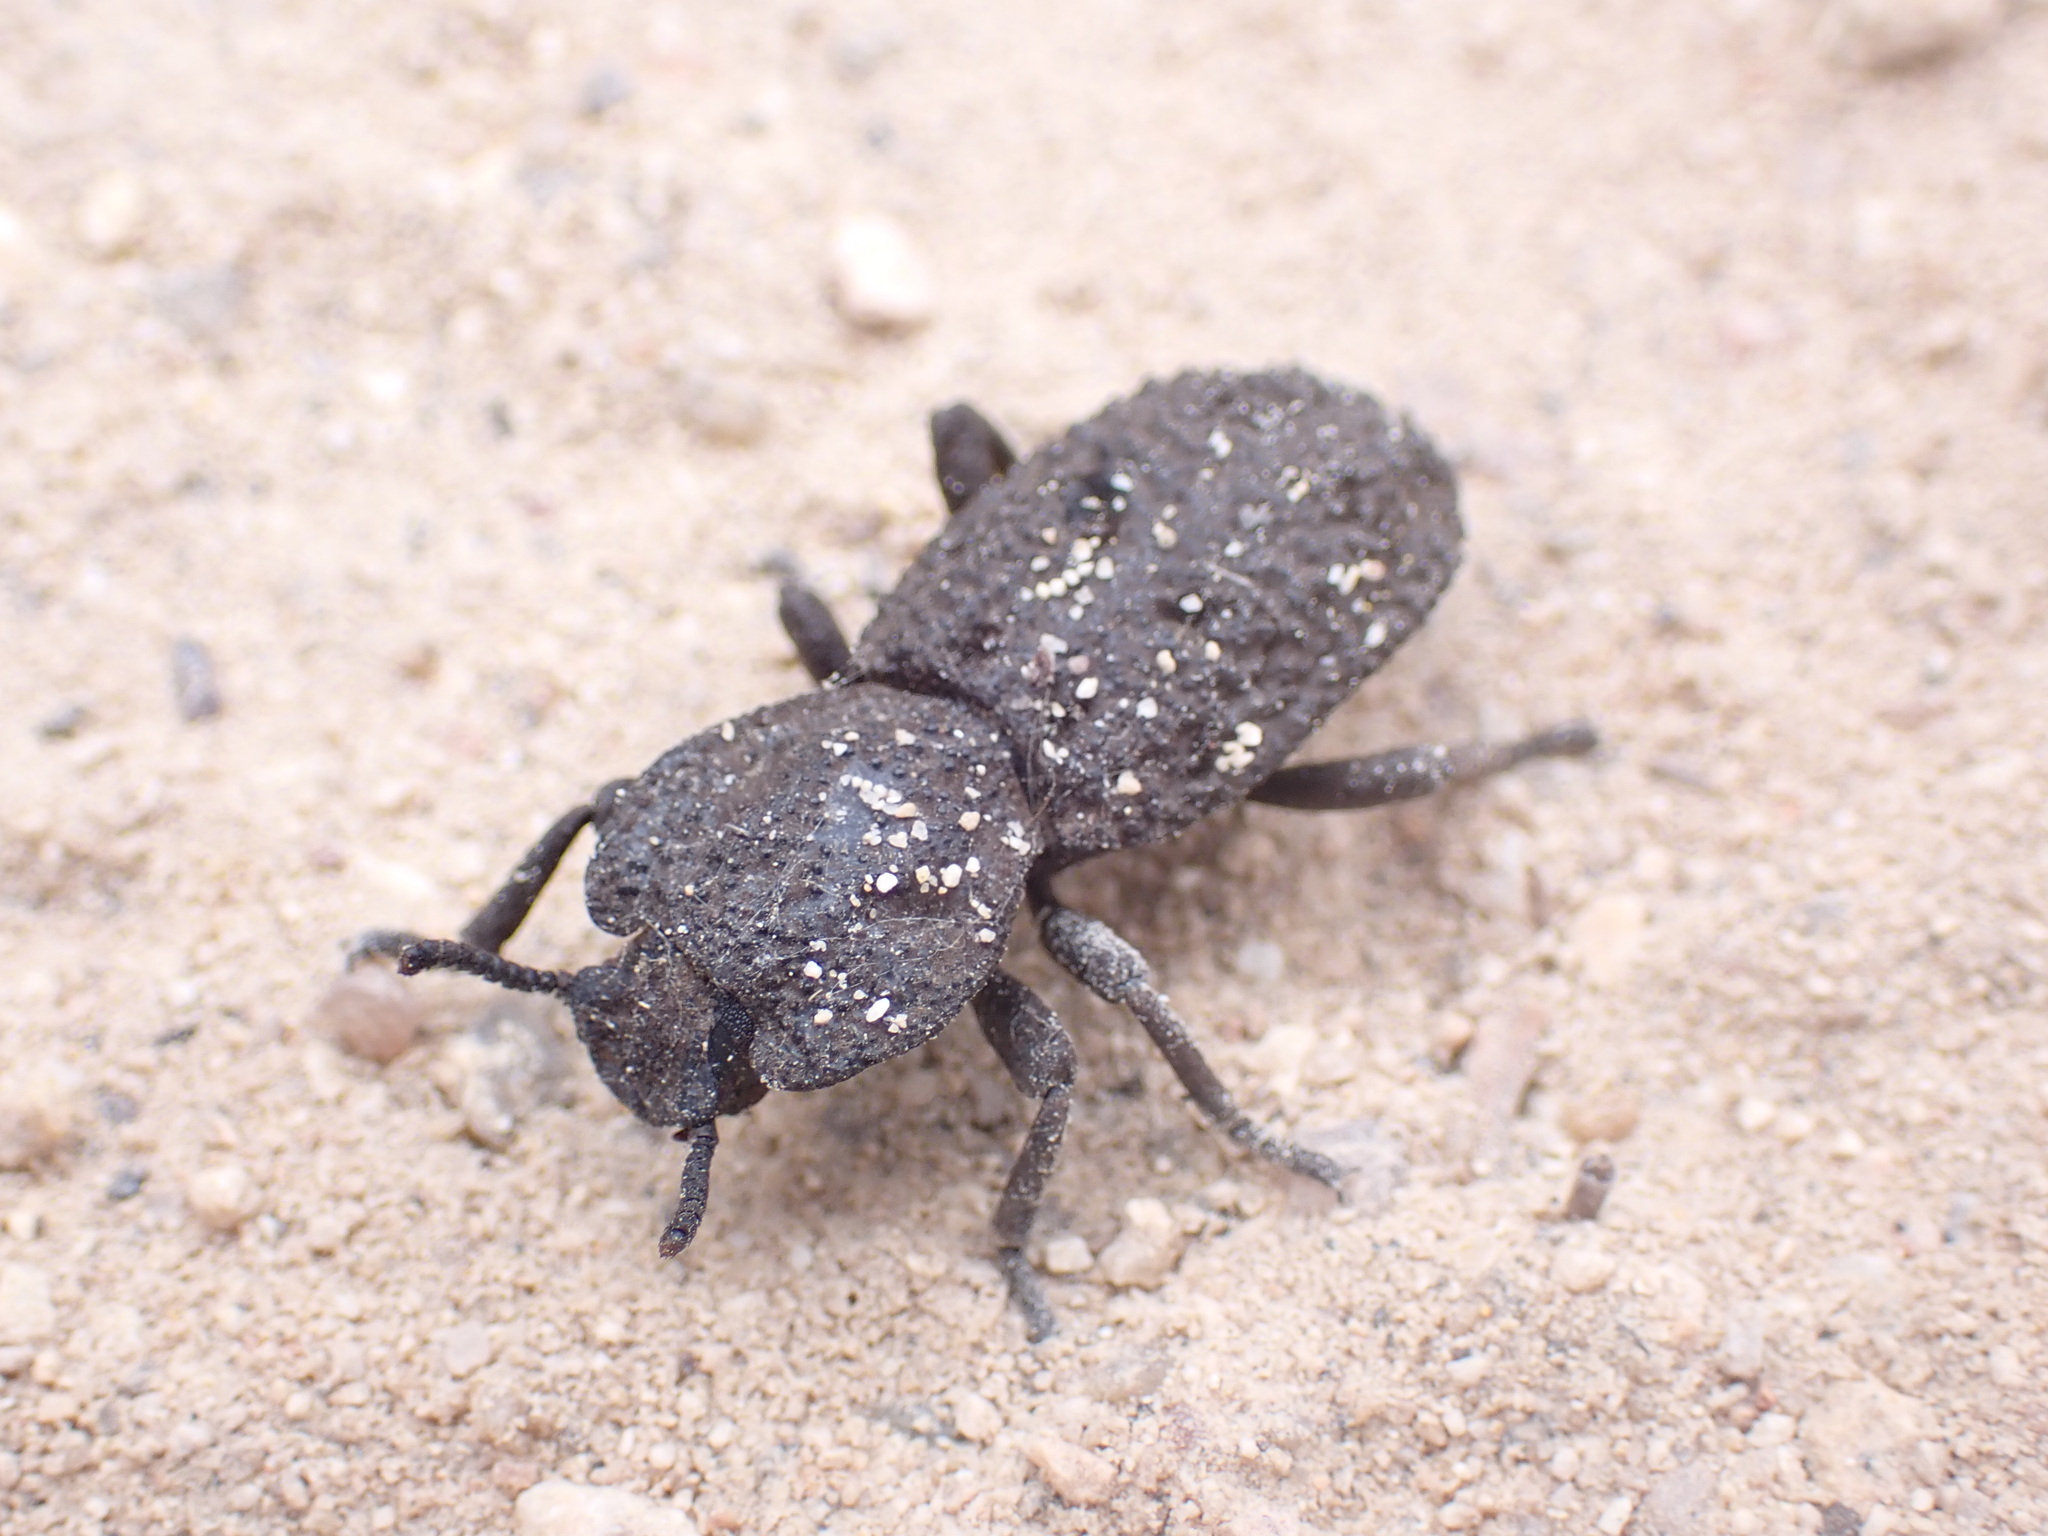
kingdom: Animalia
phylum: Arthropoda
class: Insecta
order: Coleoptera
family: Zopheridae
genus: Phloeodes
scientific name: Phloeodes diabolicus
